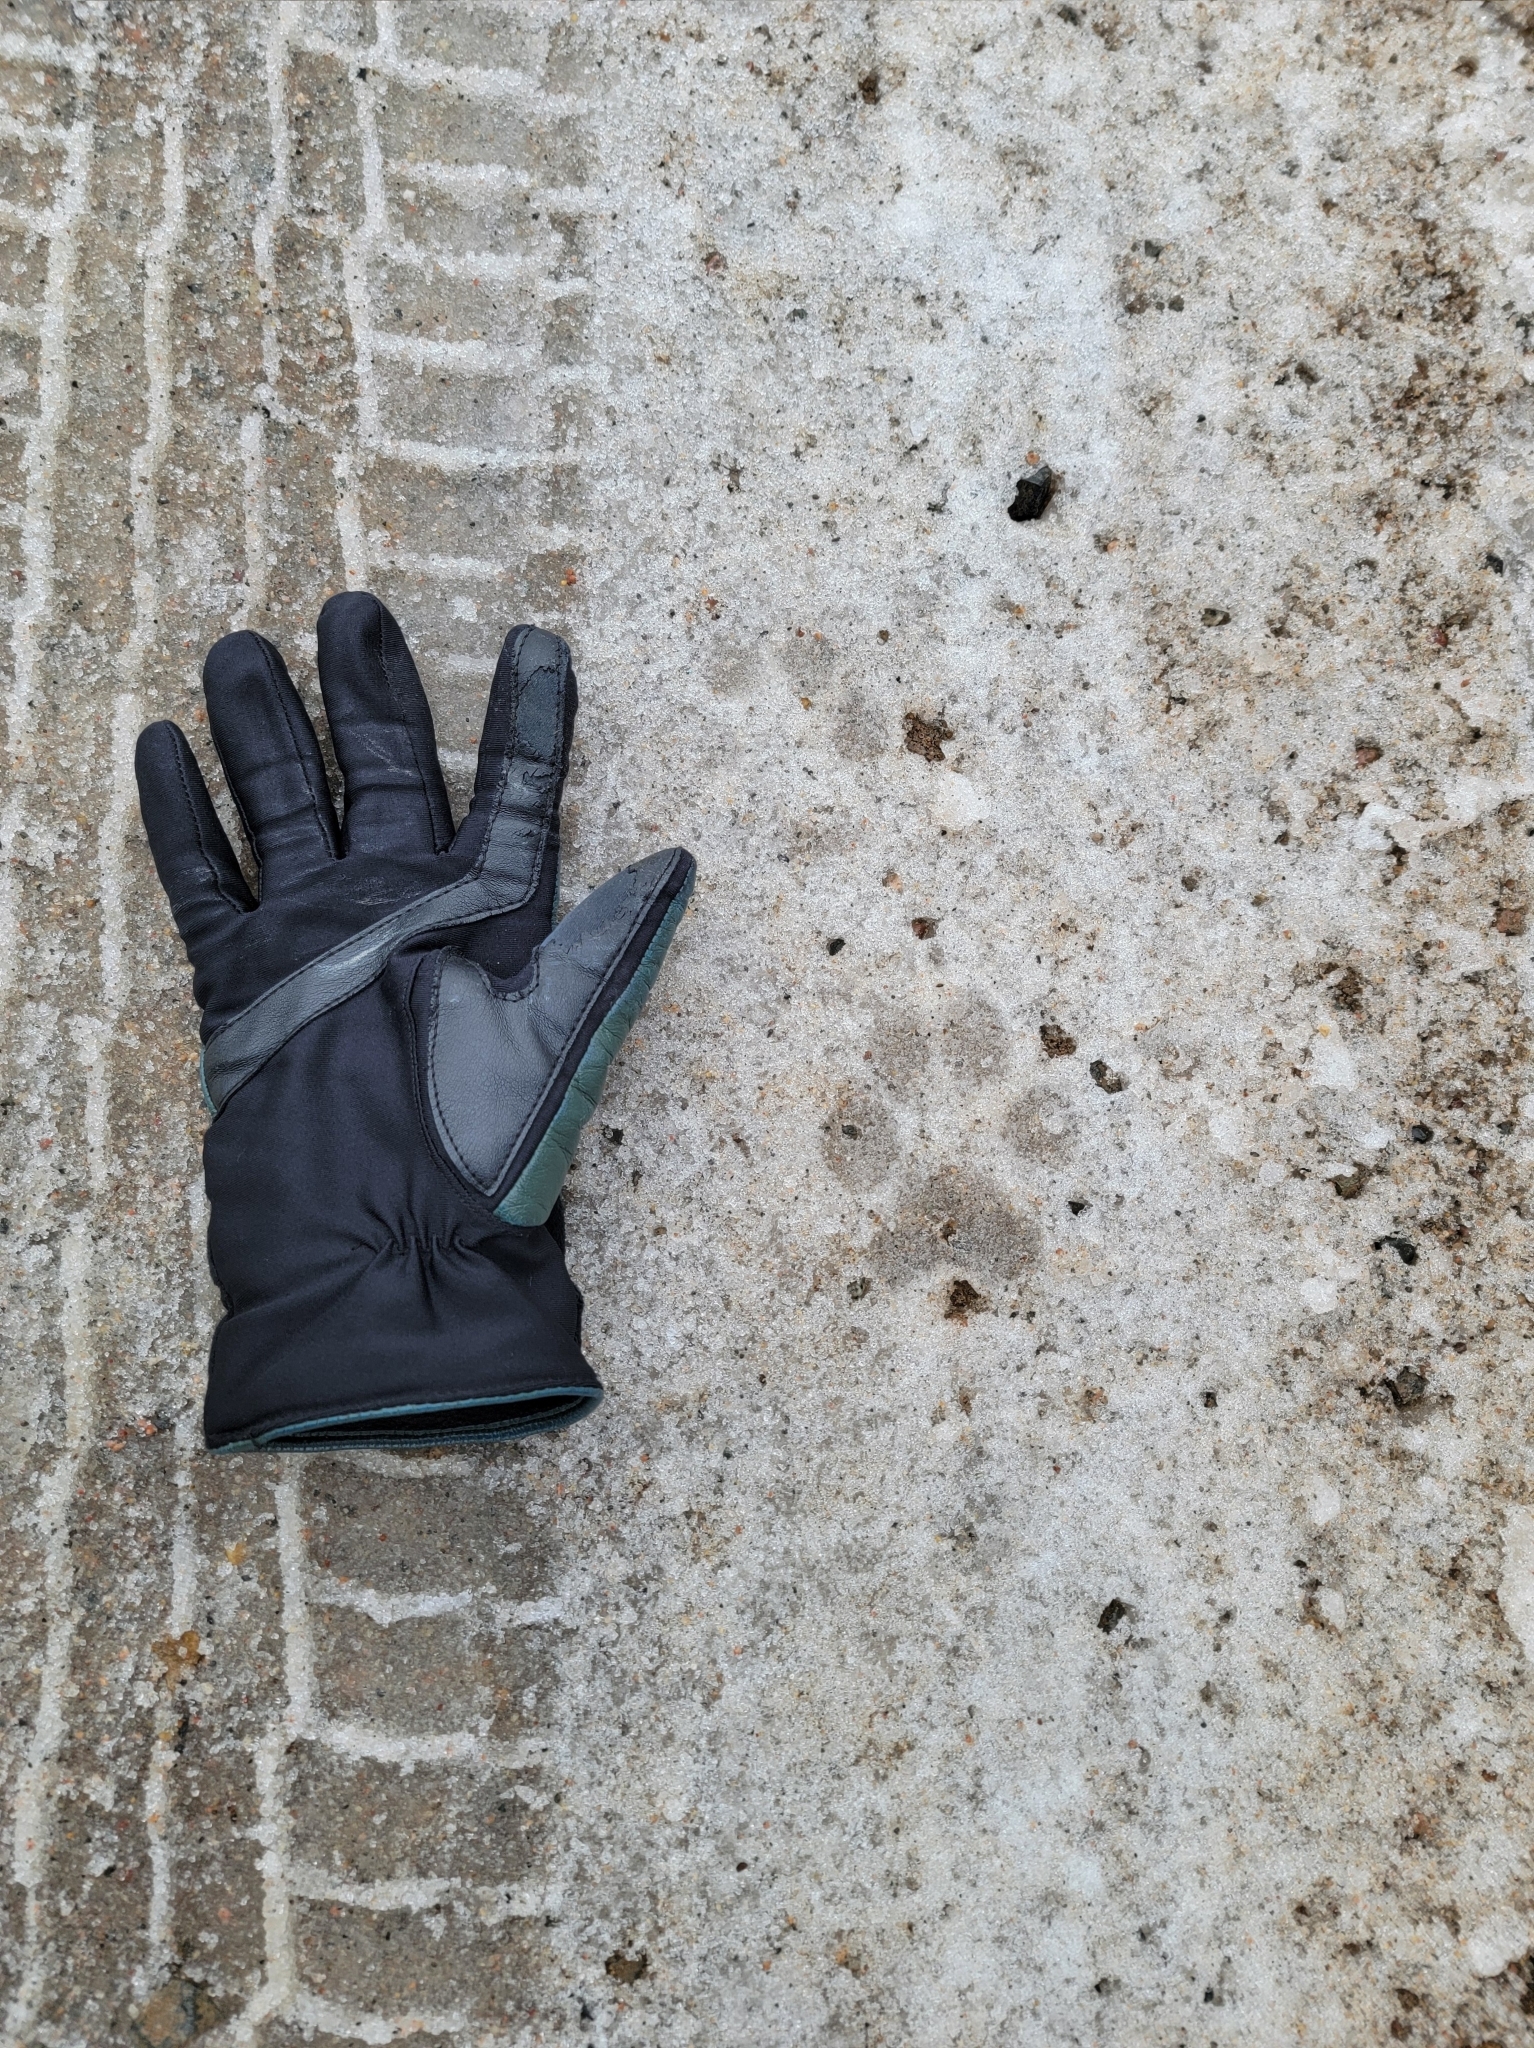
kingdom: Animalia
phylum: Chordata
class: Mammalia
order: Carnivora
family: Canidae
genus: Canis
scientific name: Canis lupus
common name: Gray wolf
